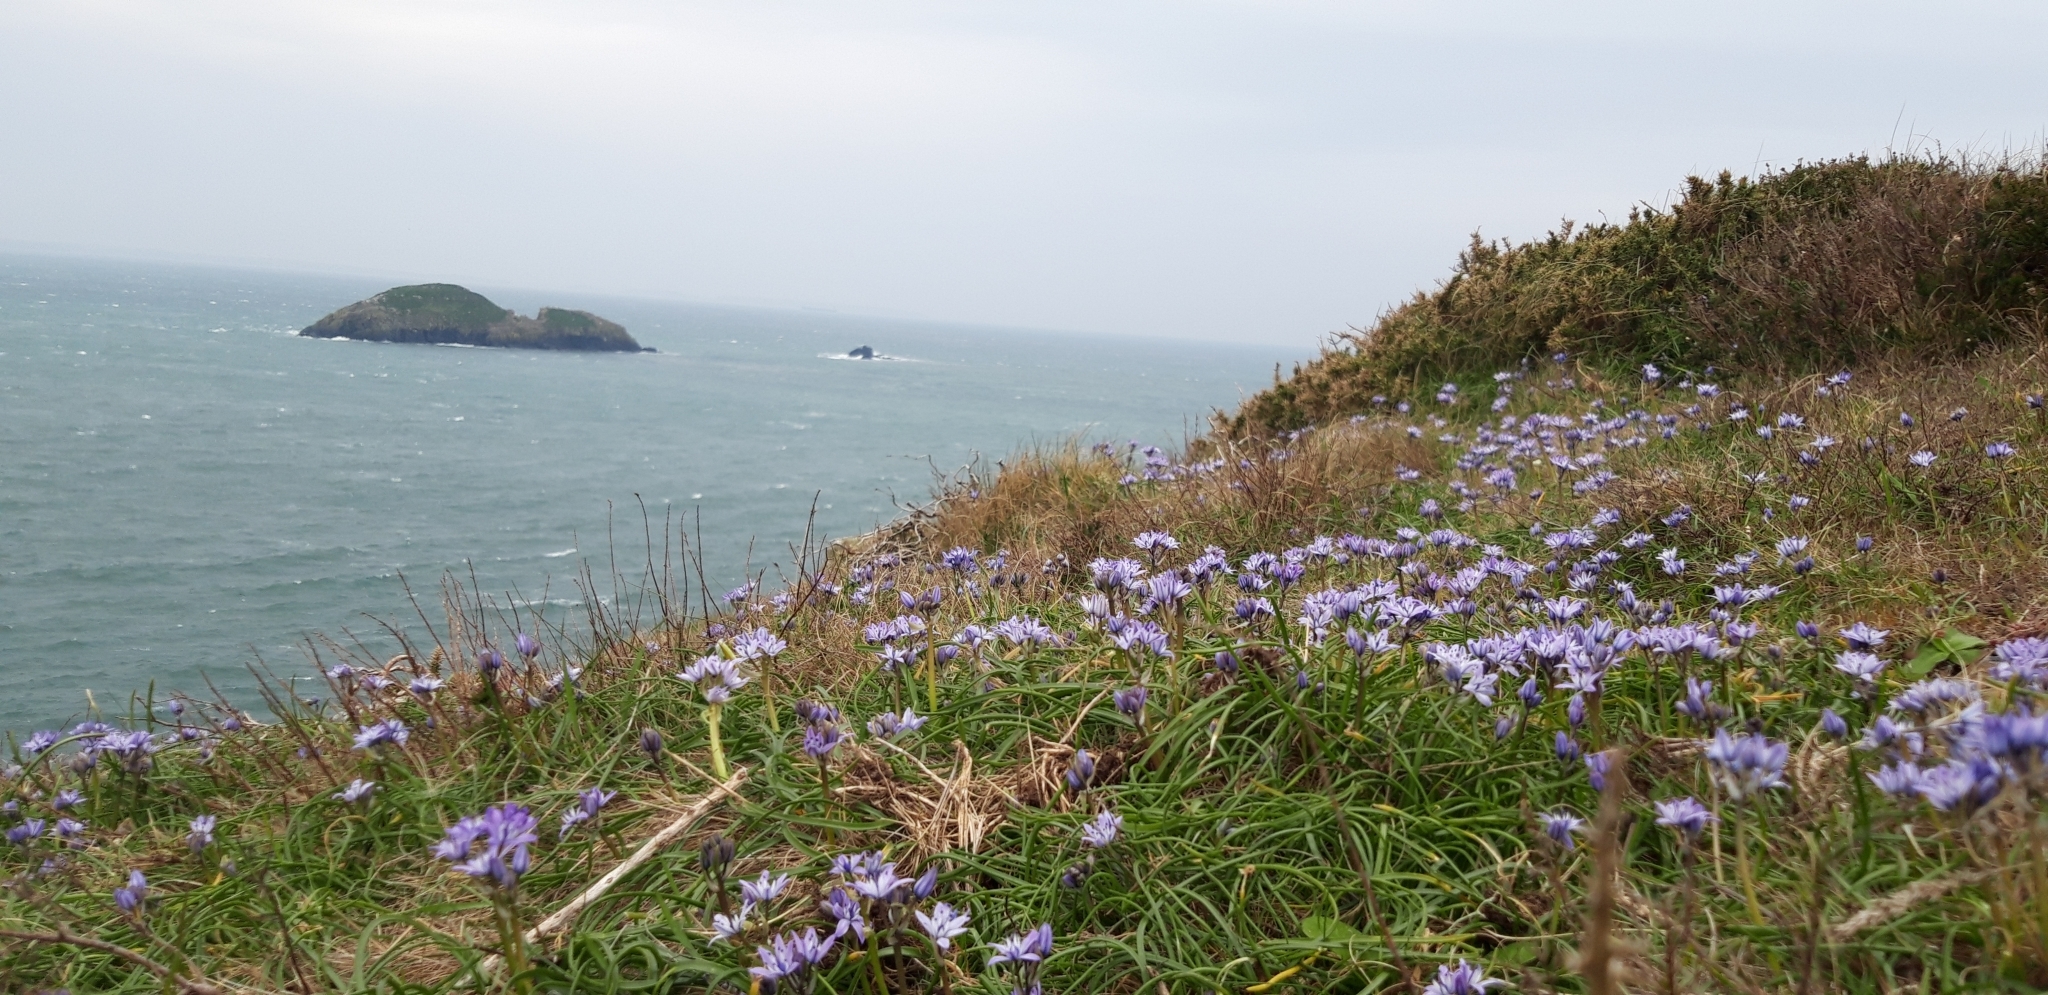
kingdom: Plantae
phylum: Tracheophyta
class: Liliopsida
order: Asparagales
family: Asparagaceae
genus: Scilla
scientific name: Scilla verna
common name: Spring squill
